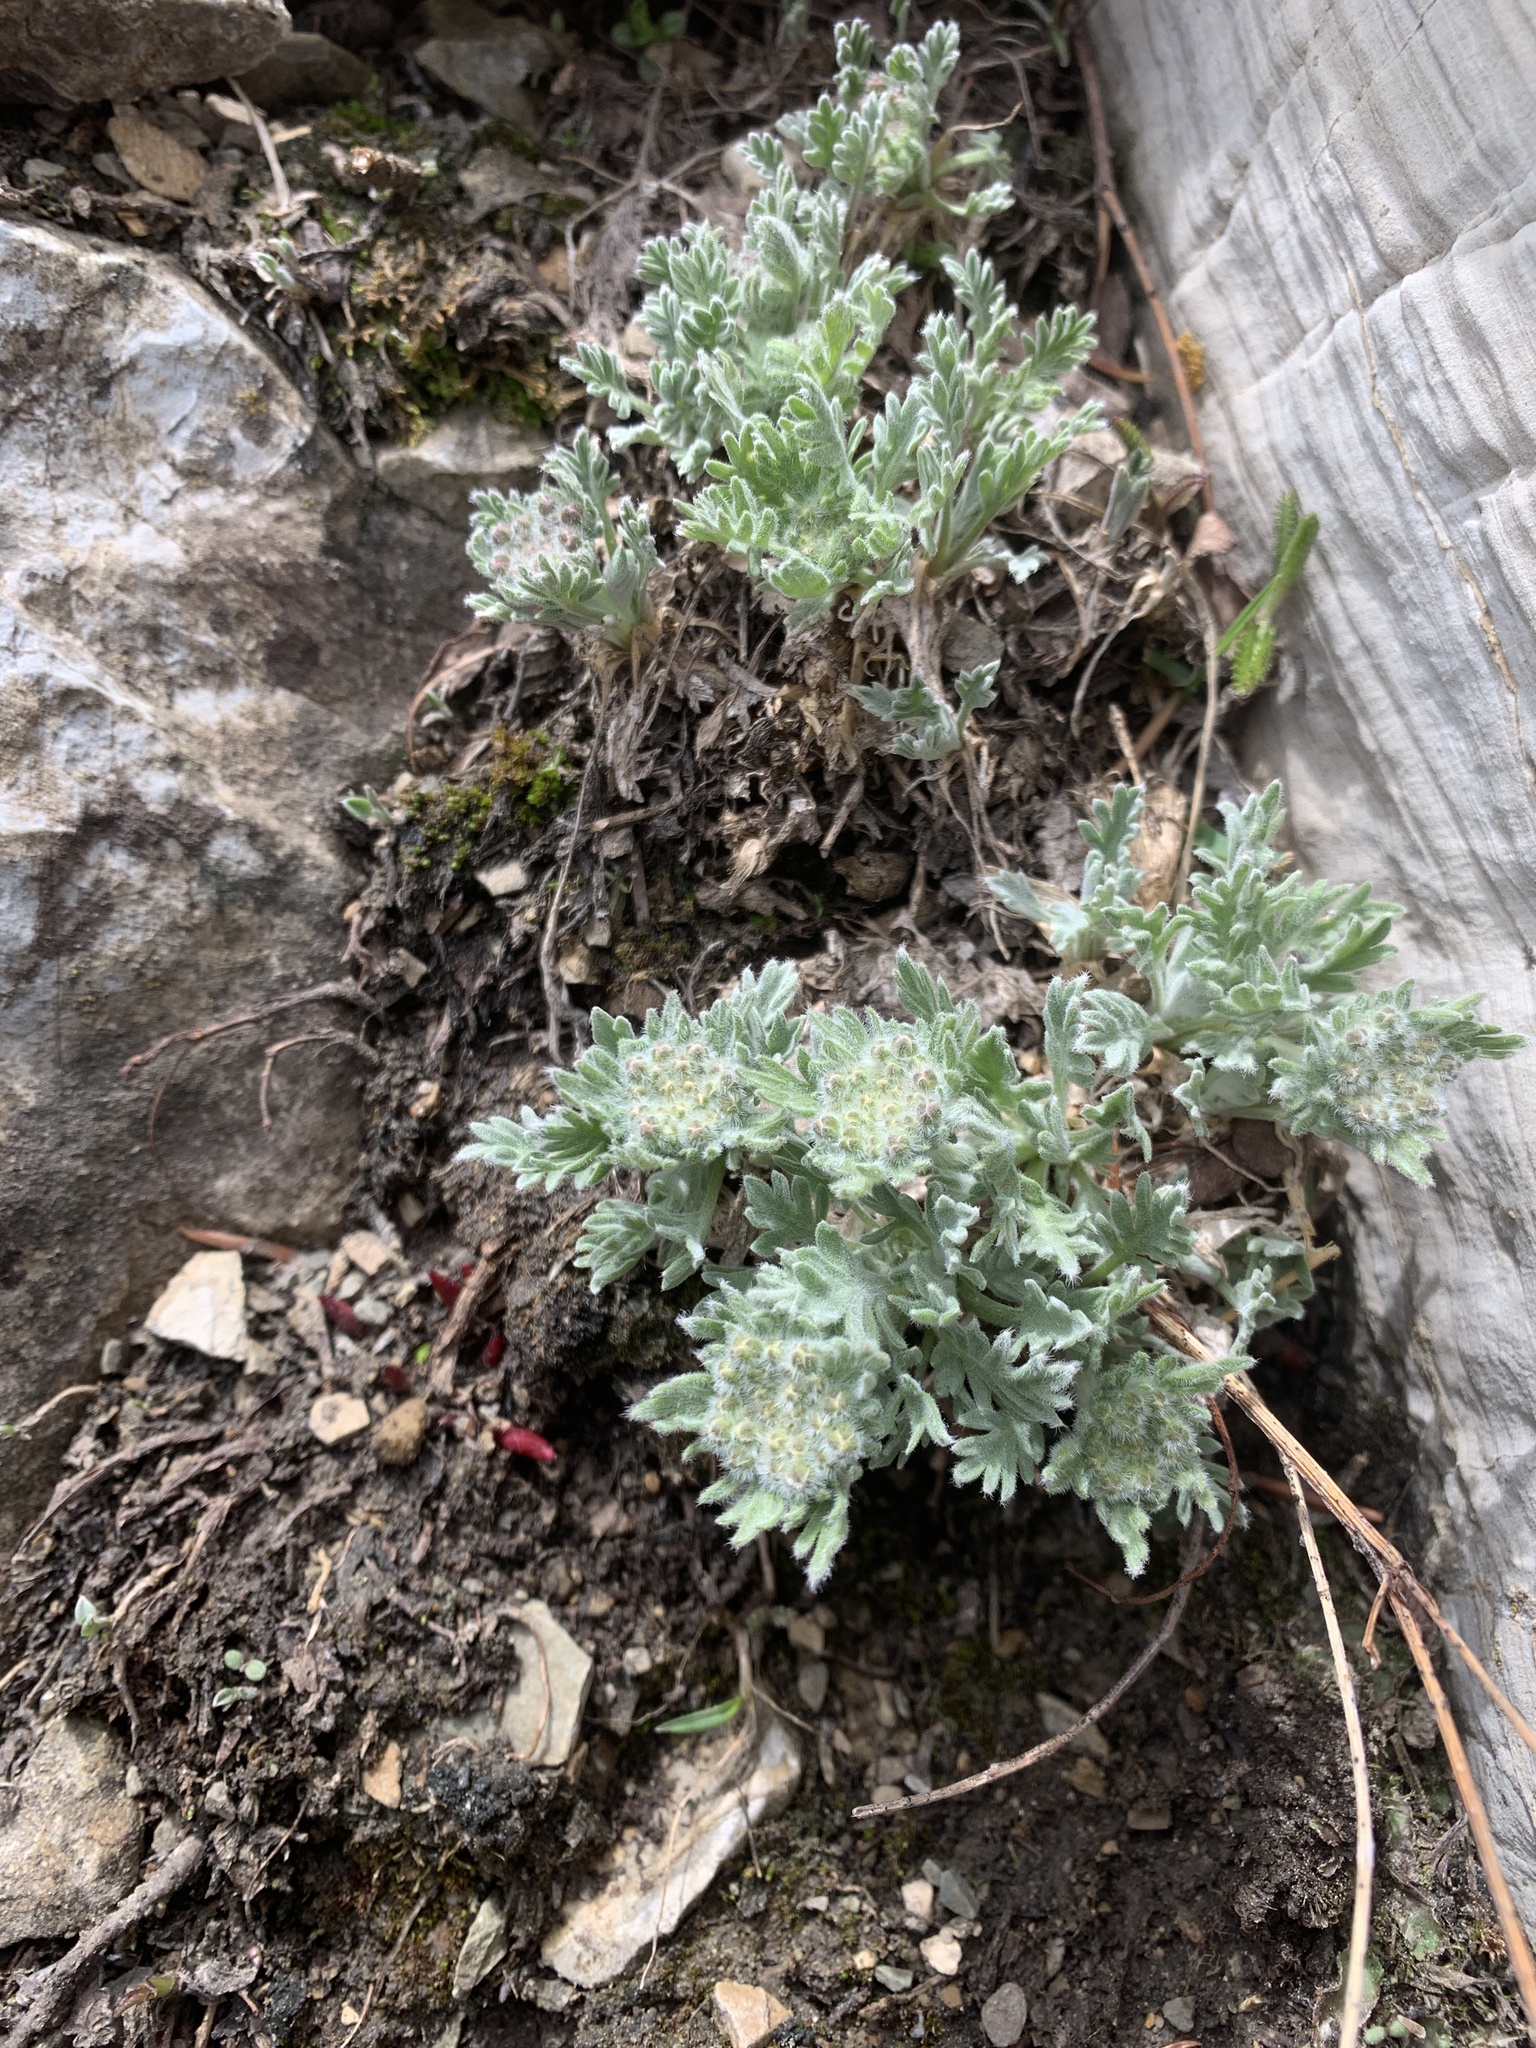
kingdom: Plantae
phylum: Tracheophyta
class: Magnoliopsida
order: Brassicales
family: Brassicaceae
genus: Smelowskia
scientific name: Smelowskia americana
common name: American false candytuft
